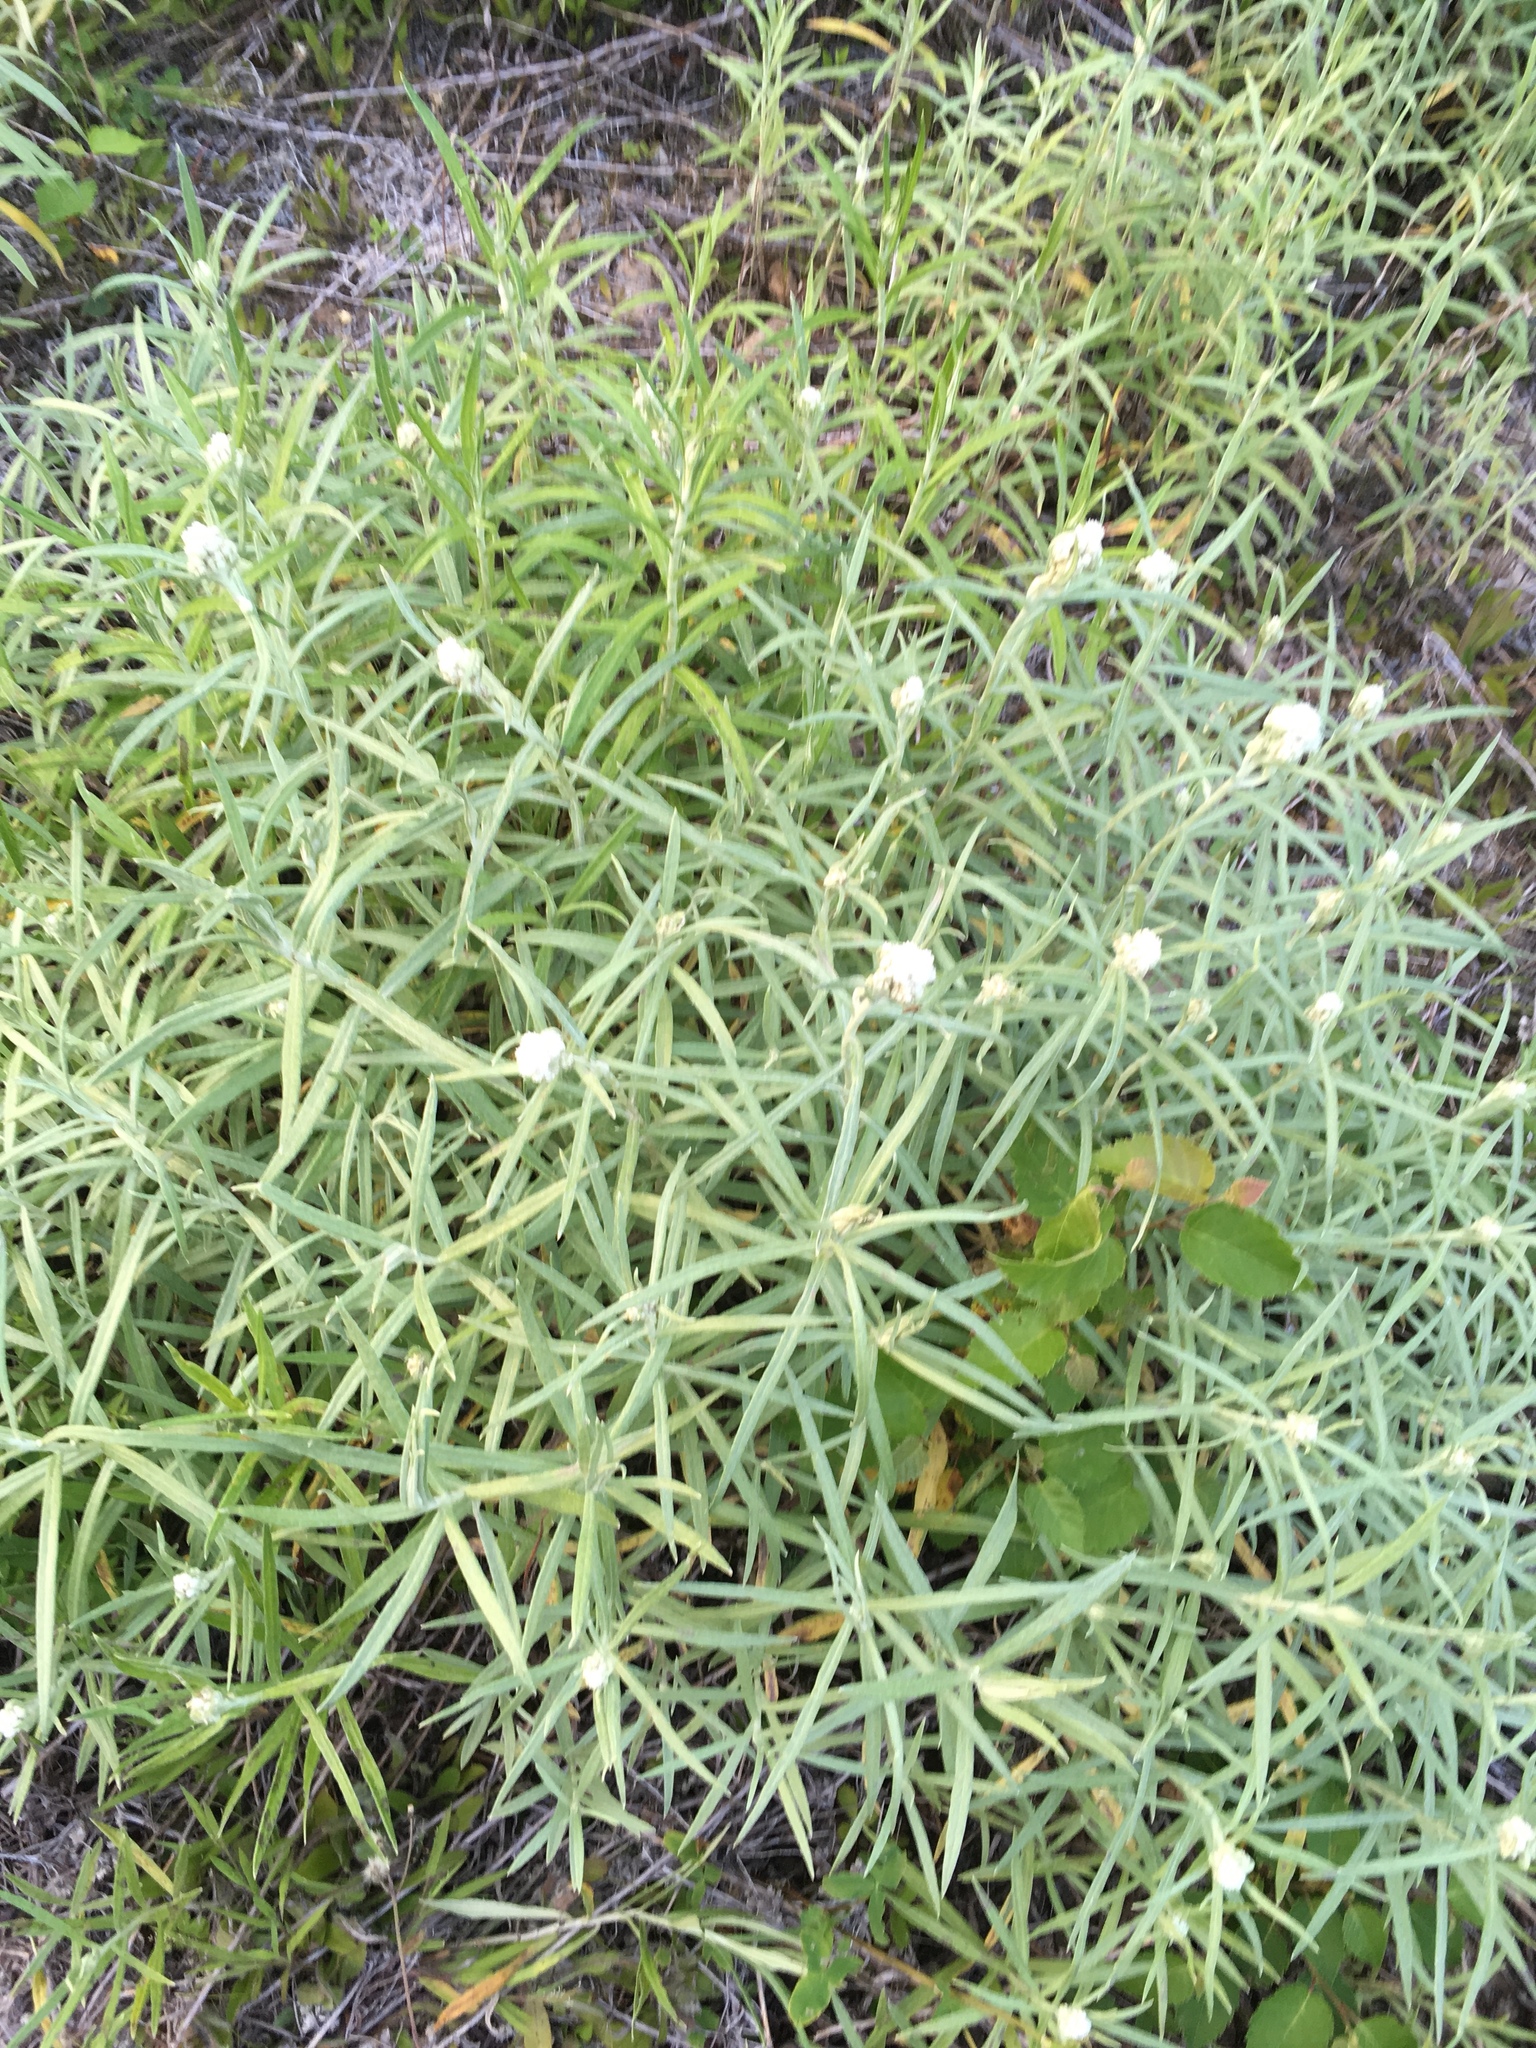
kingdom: Plantae
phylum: Tracheophyta
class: Magnoliopsida
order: Asterales
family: Asteraceae
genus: Anaphalis
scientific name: Anaphalis margaritacea
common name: Pearly everlasting
